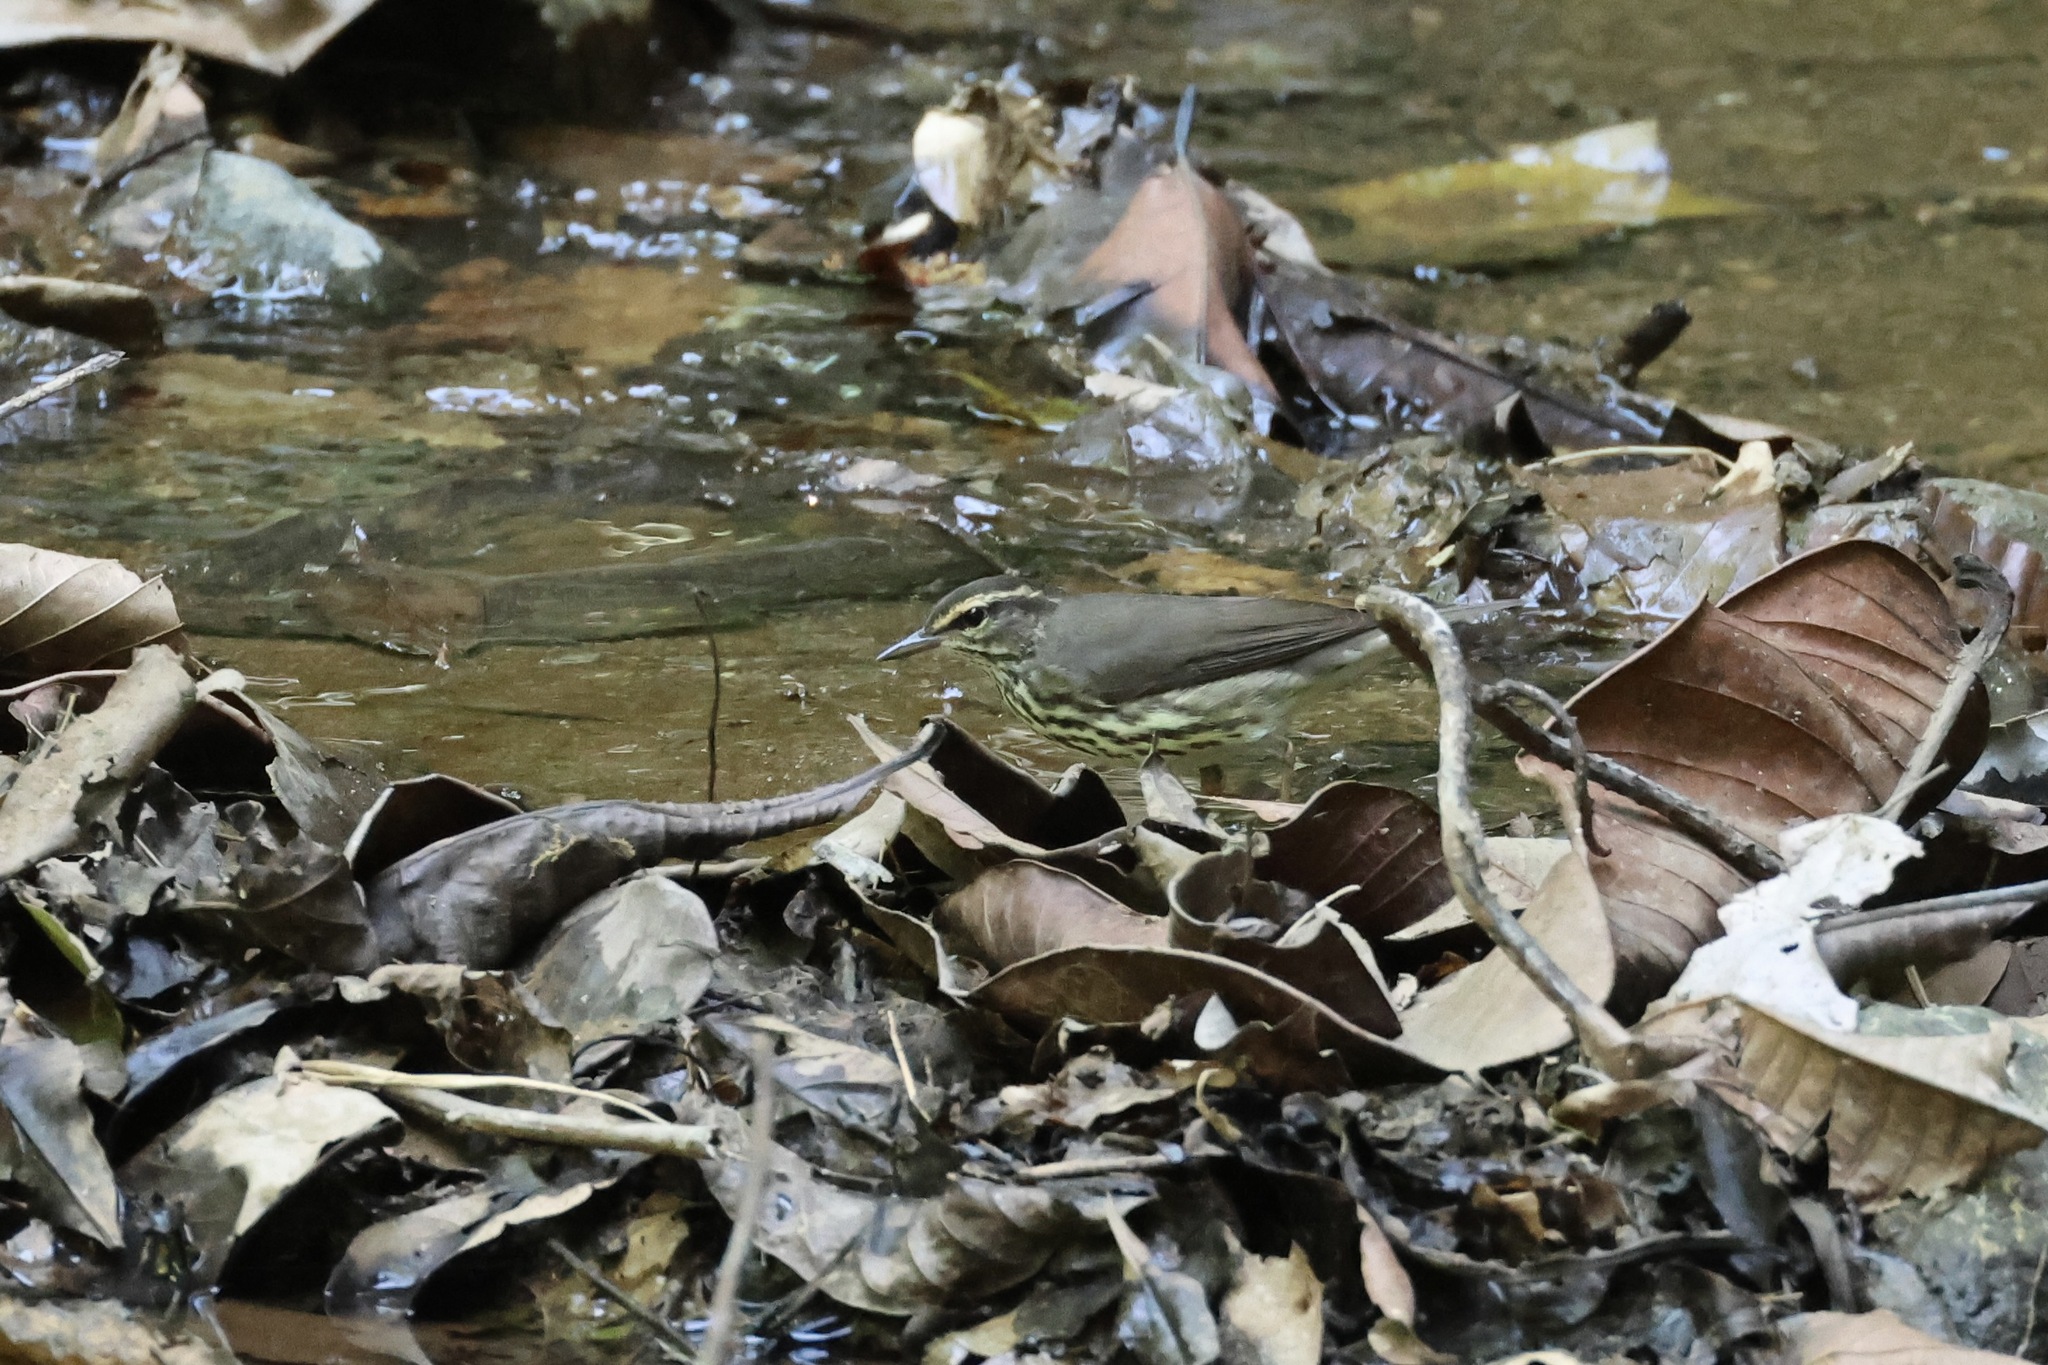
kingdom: Animalia
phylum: Chordata
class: Aves
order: Passeriformes
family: Parulidae
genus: Parkesia
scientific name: Parkesia noveboracensis
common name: Northern waterthrush
